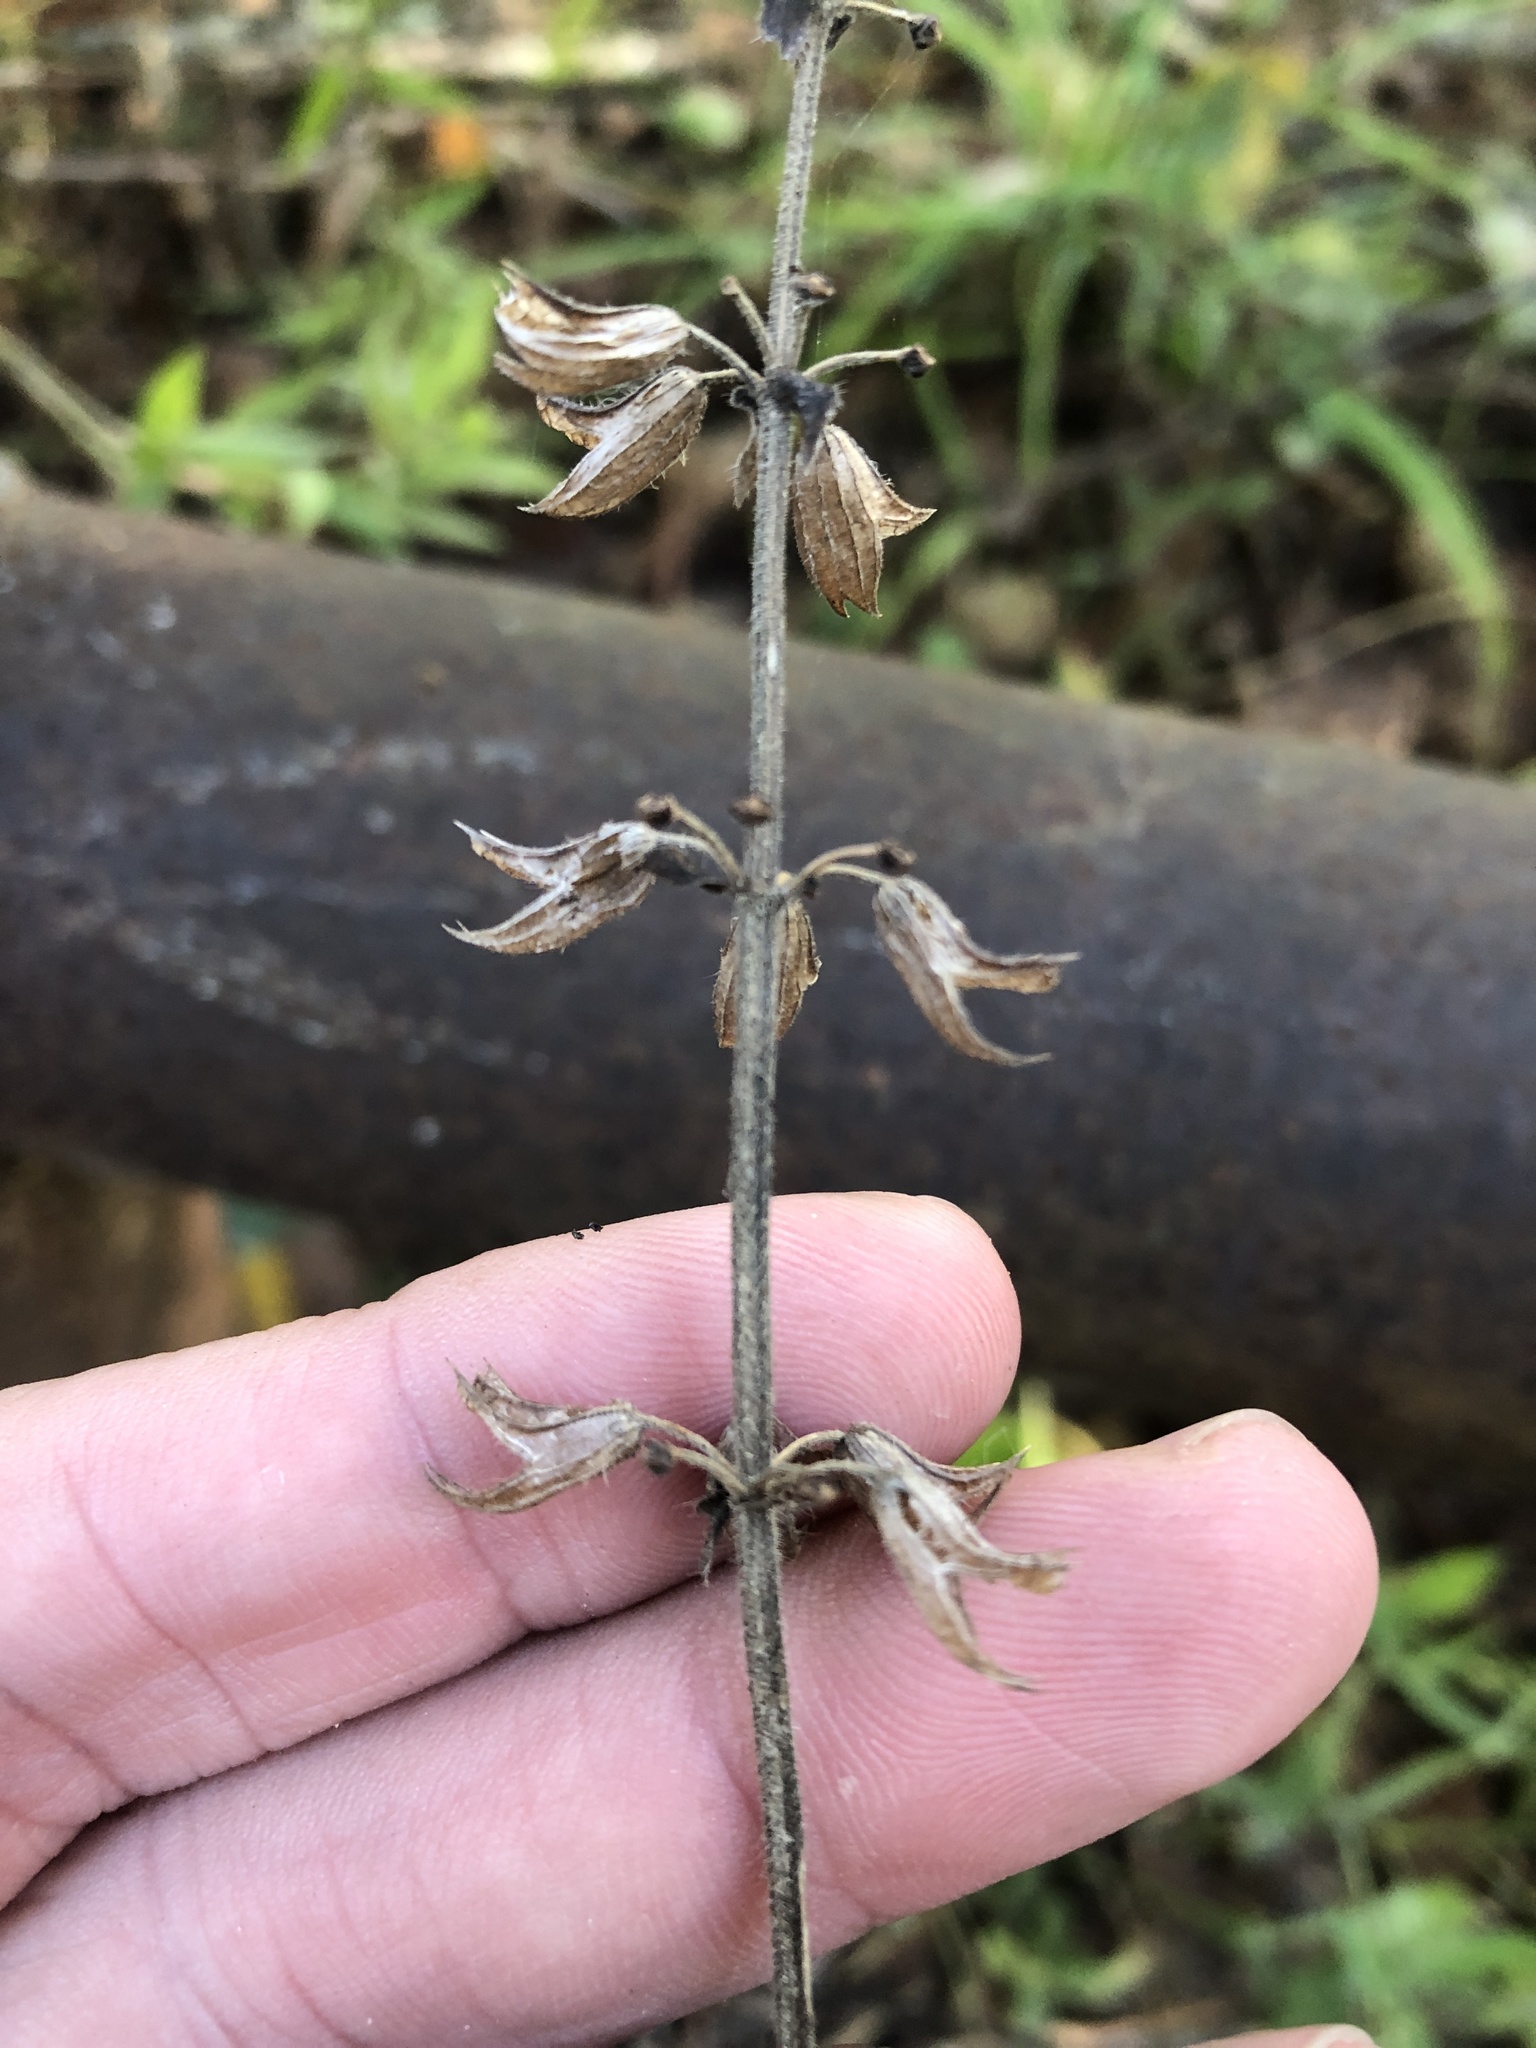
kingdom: Plantae
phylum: Tracheophyta
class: Magnoliopsida
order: Lamiales
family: Lamiaceae
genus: Salvia
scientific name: Salvia lyrata
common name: Cancerweed
